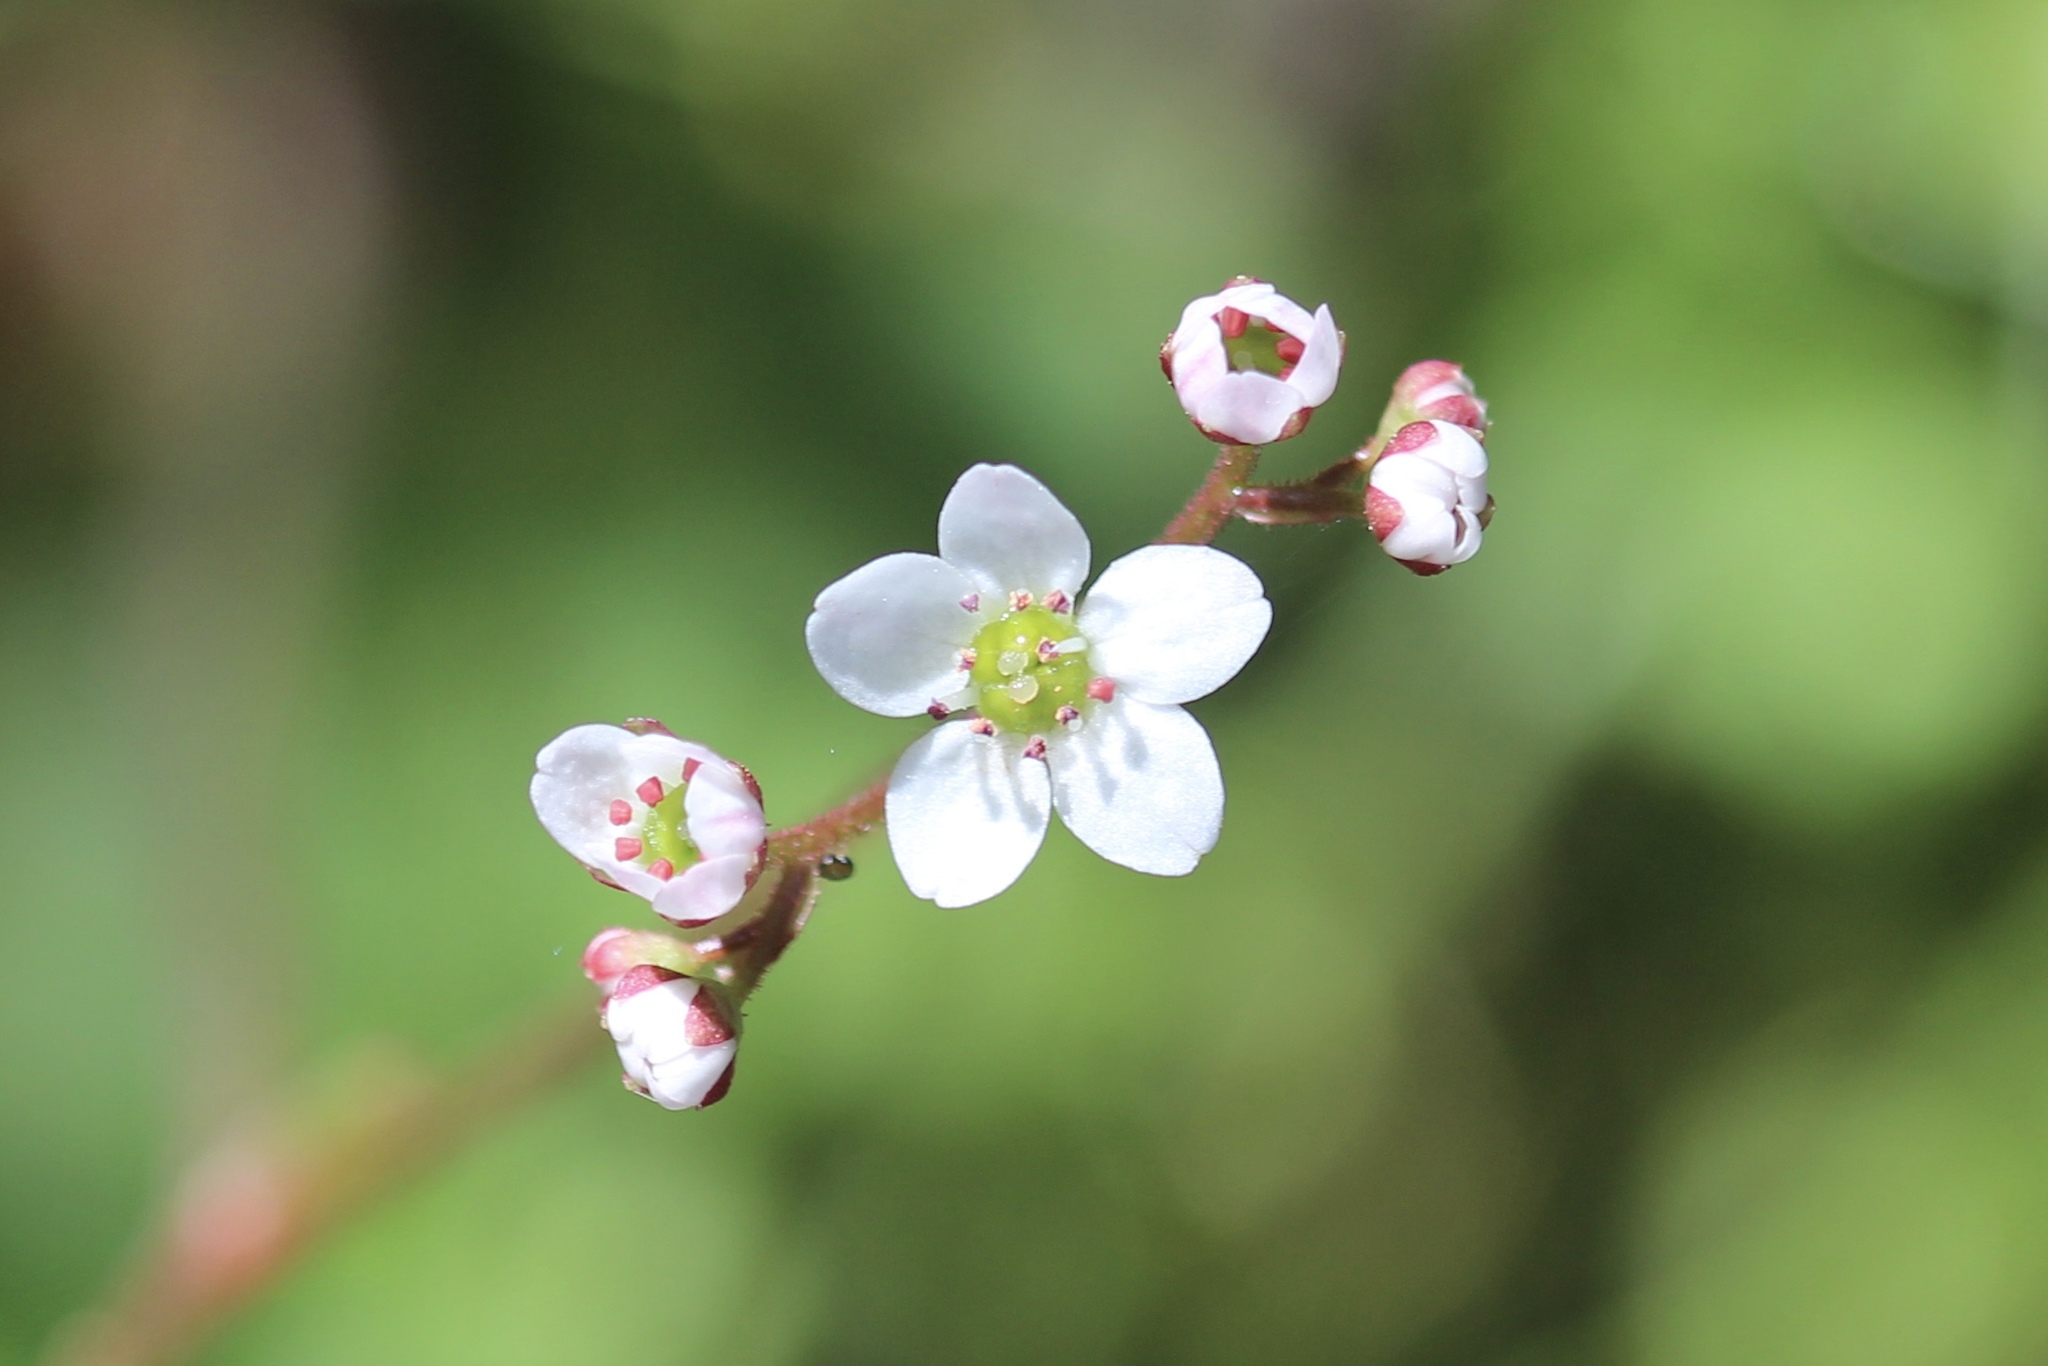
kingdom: Plantae
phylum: Tracheophyta
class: Magnoliopsida
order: Saxifragales
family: Saxifragaceae
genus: Micranthes
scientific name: Micranthes californica
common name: California saxifrage
